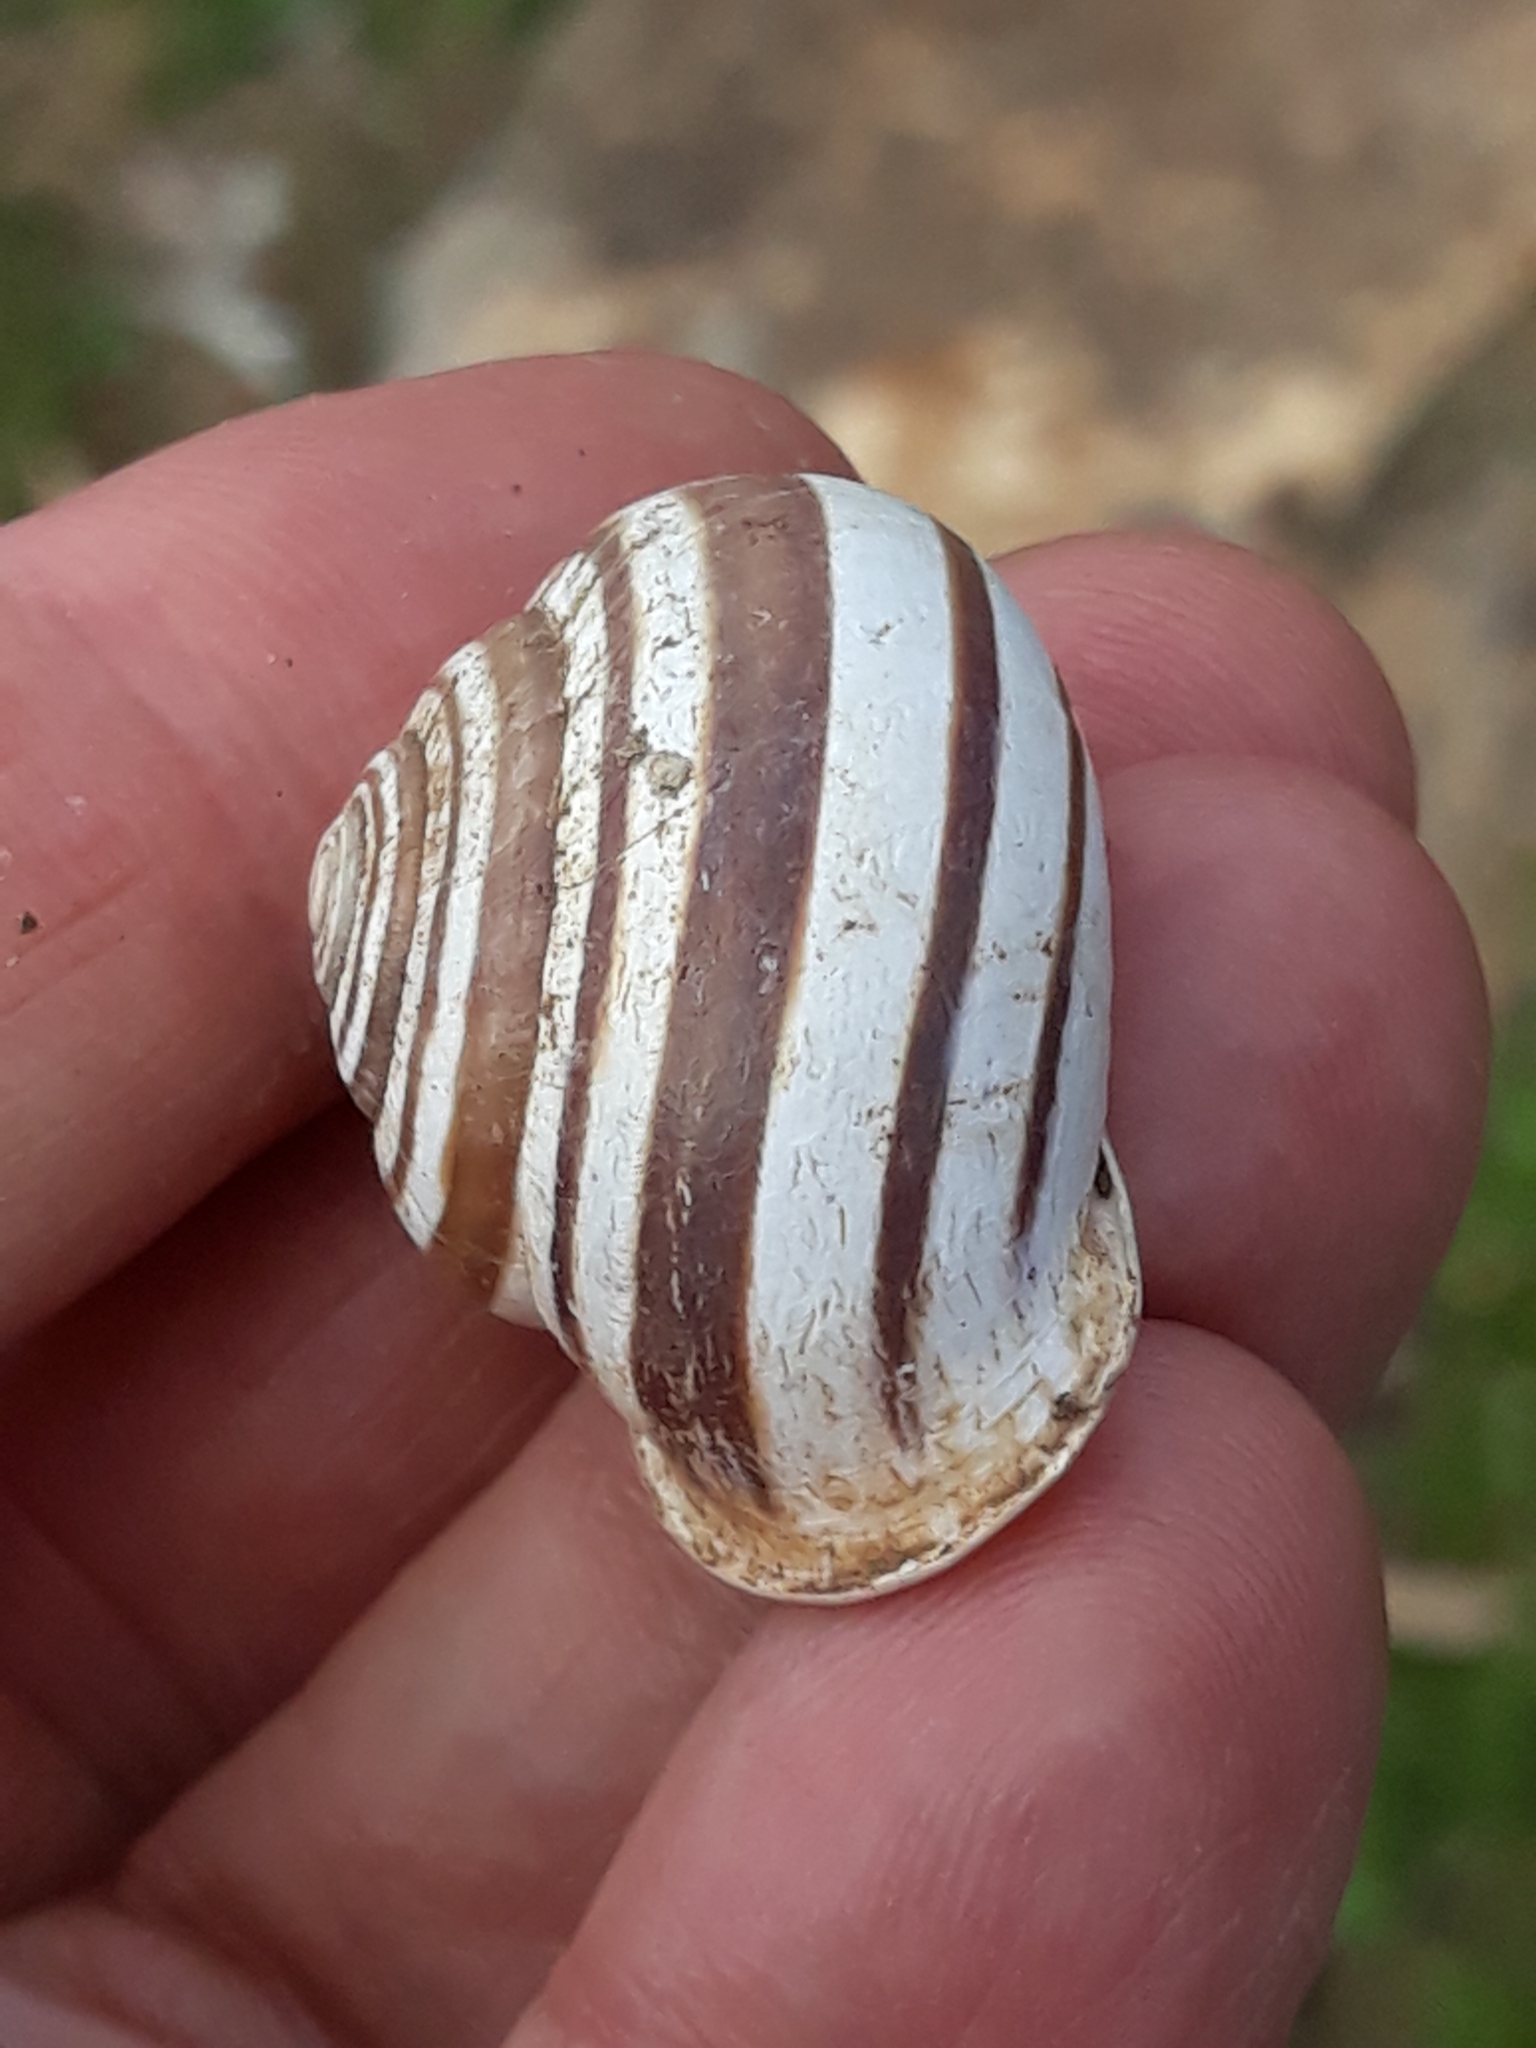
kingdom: Animalia
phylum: Mollusca
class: Gastropoda
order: Stylommatophora
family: Helicidae
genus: Eobania
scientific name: Eobania vermiculata
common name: Chocolateband snail
